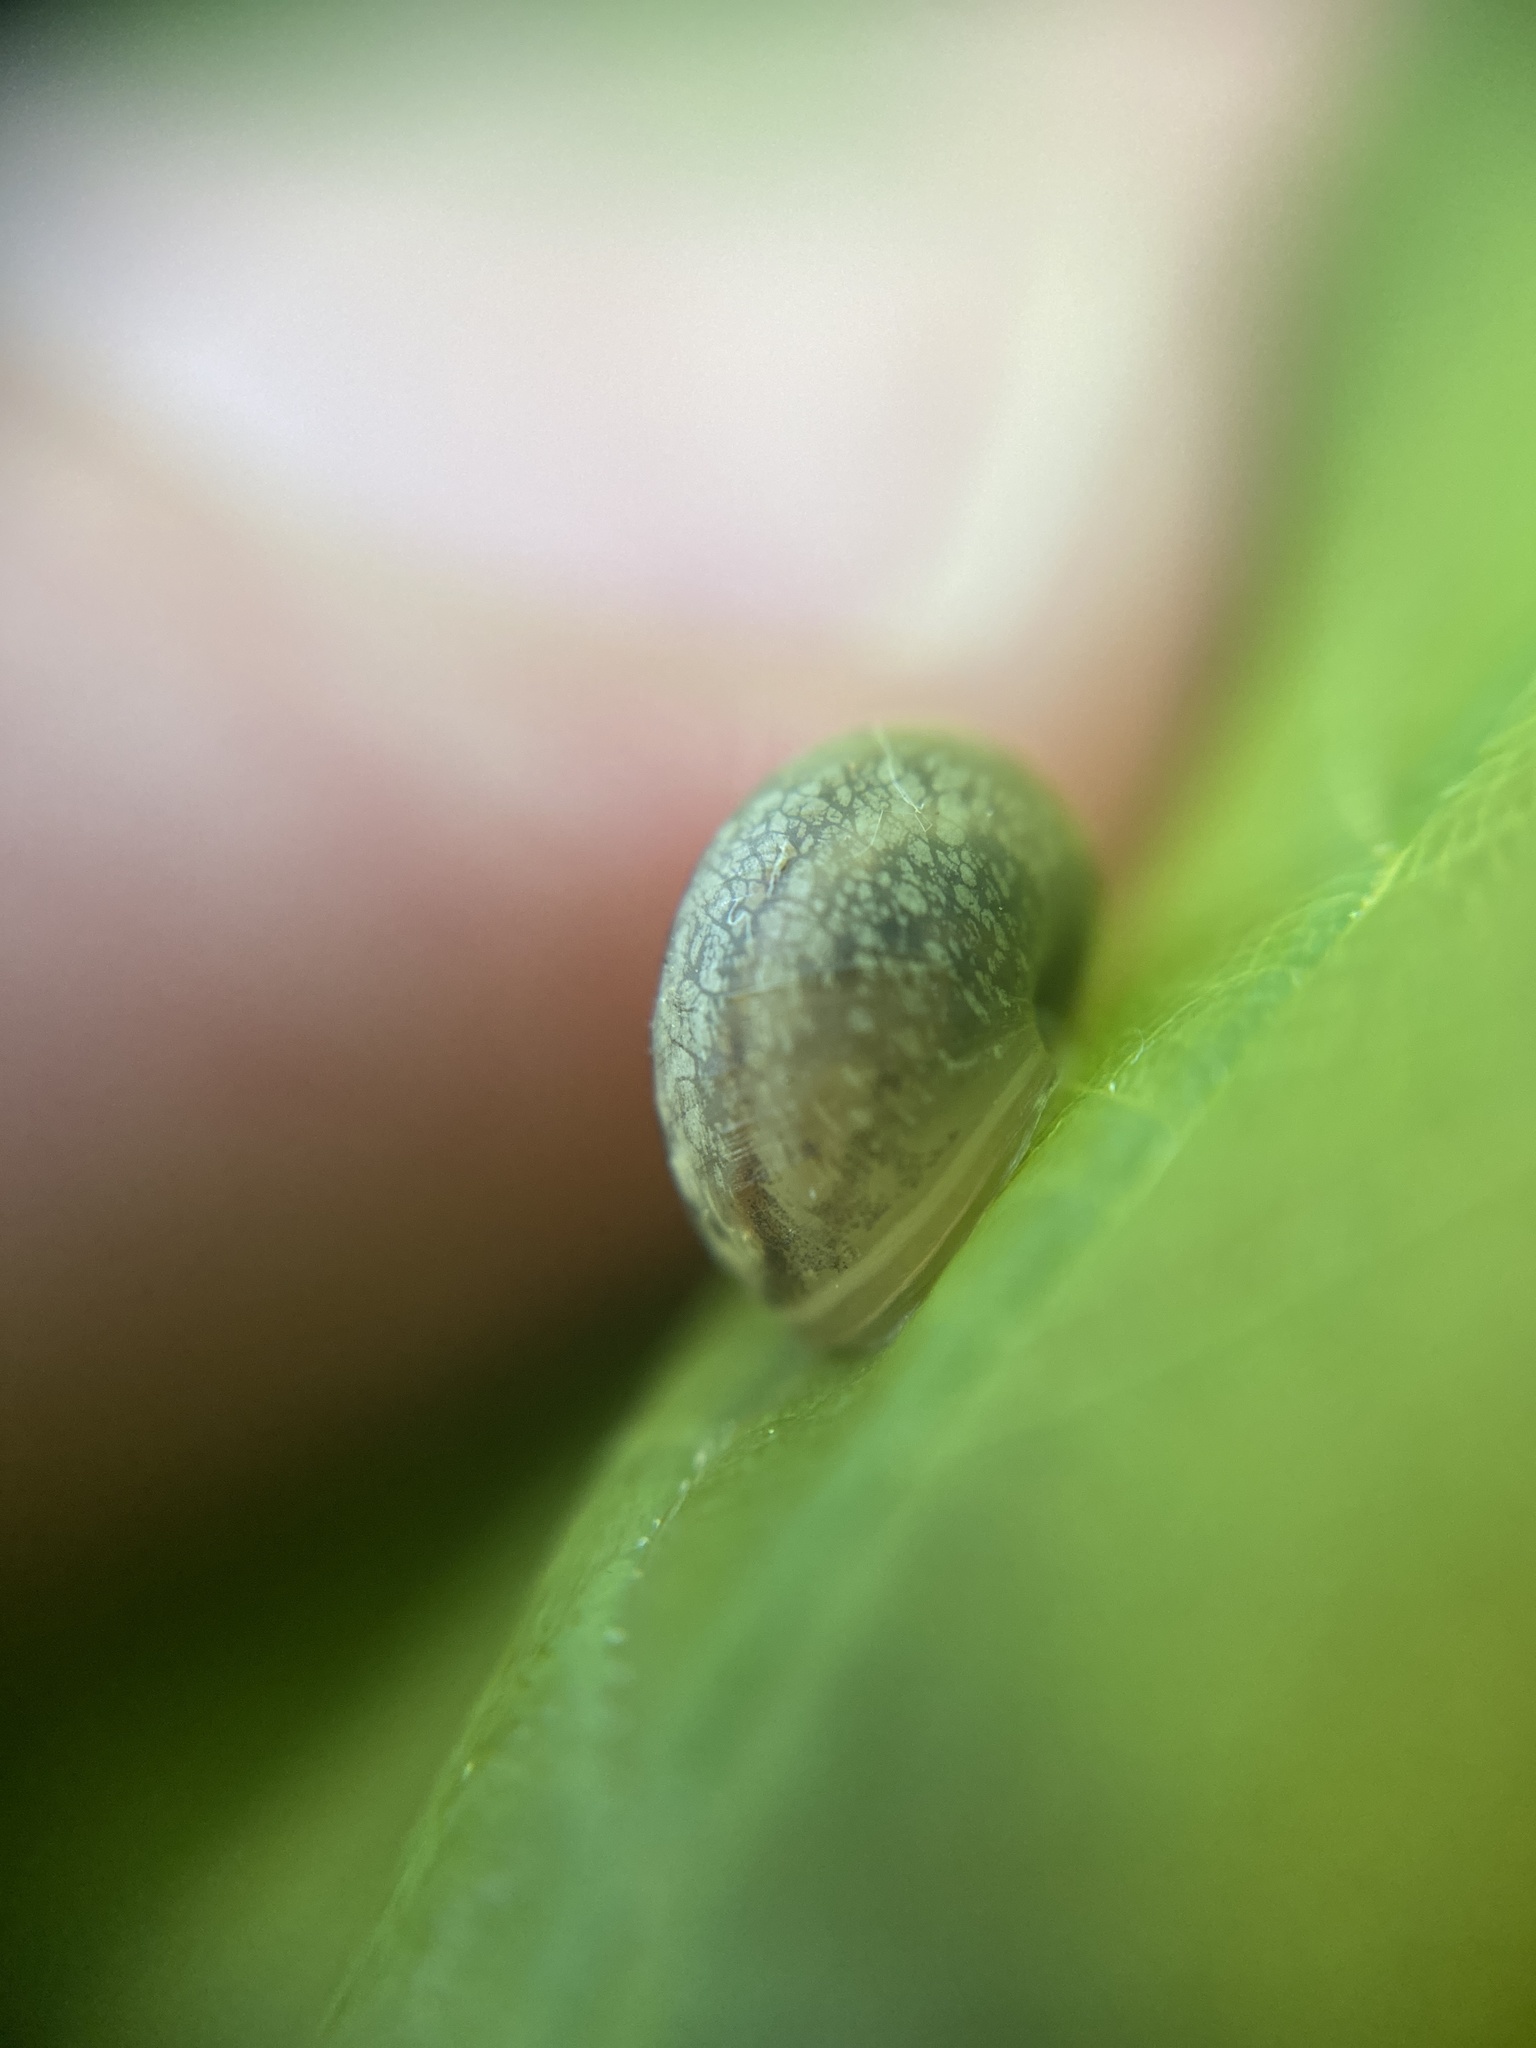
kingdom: Animalia
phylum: Mollusca
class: Gastropoda
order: Stylommatophora
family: Helicidae
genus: Cepaea
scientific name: Cepaea
